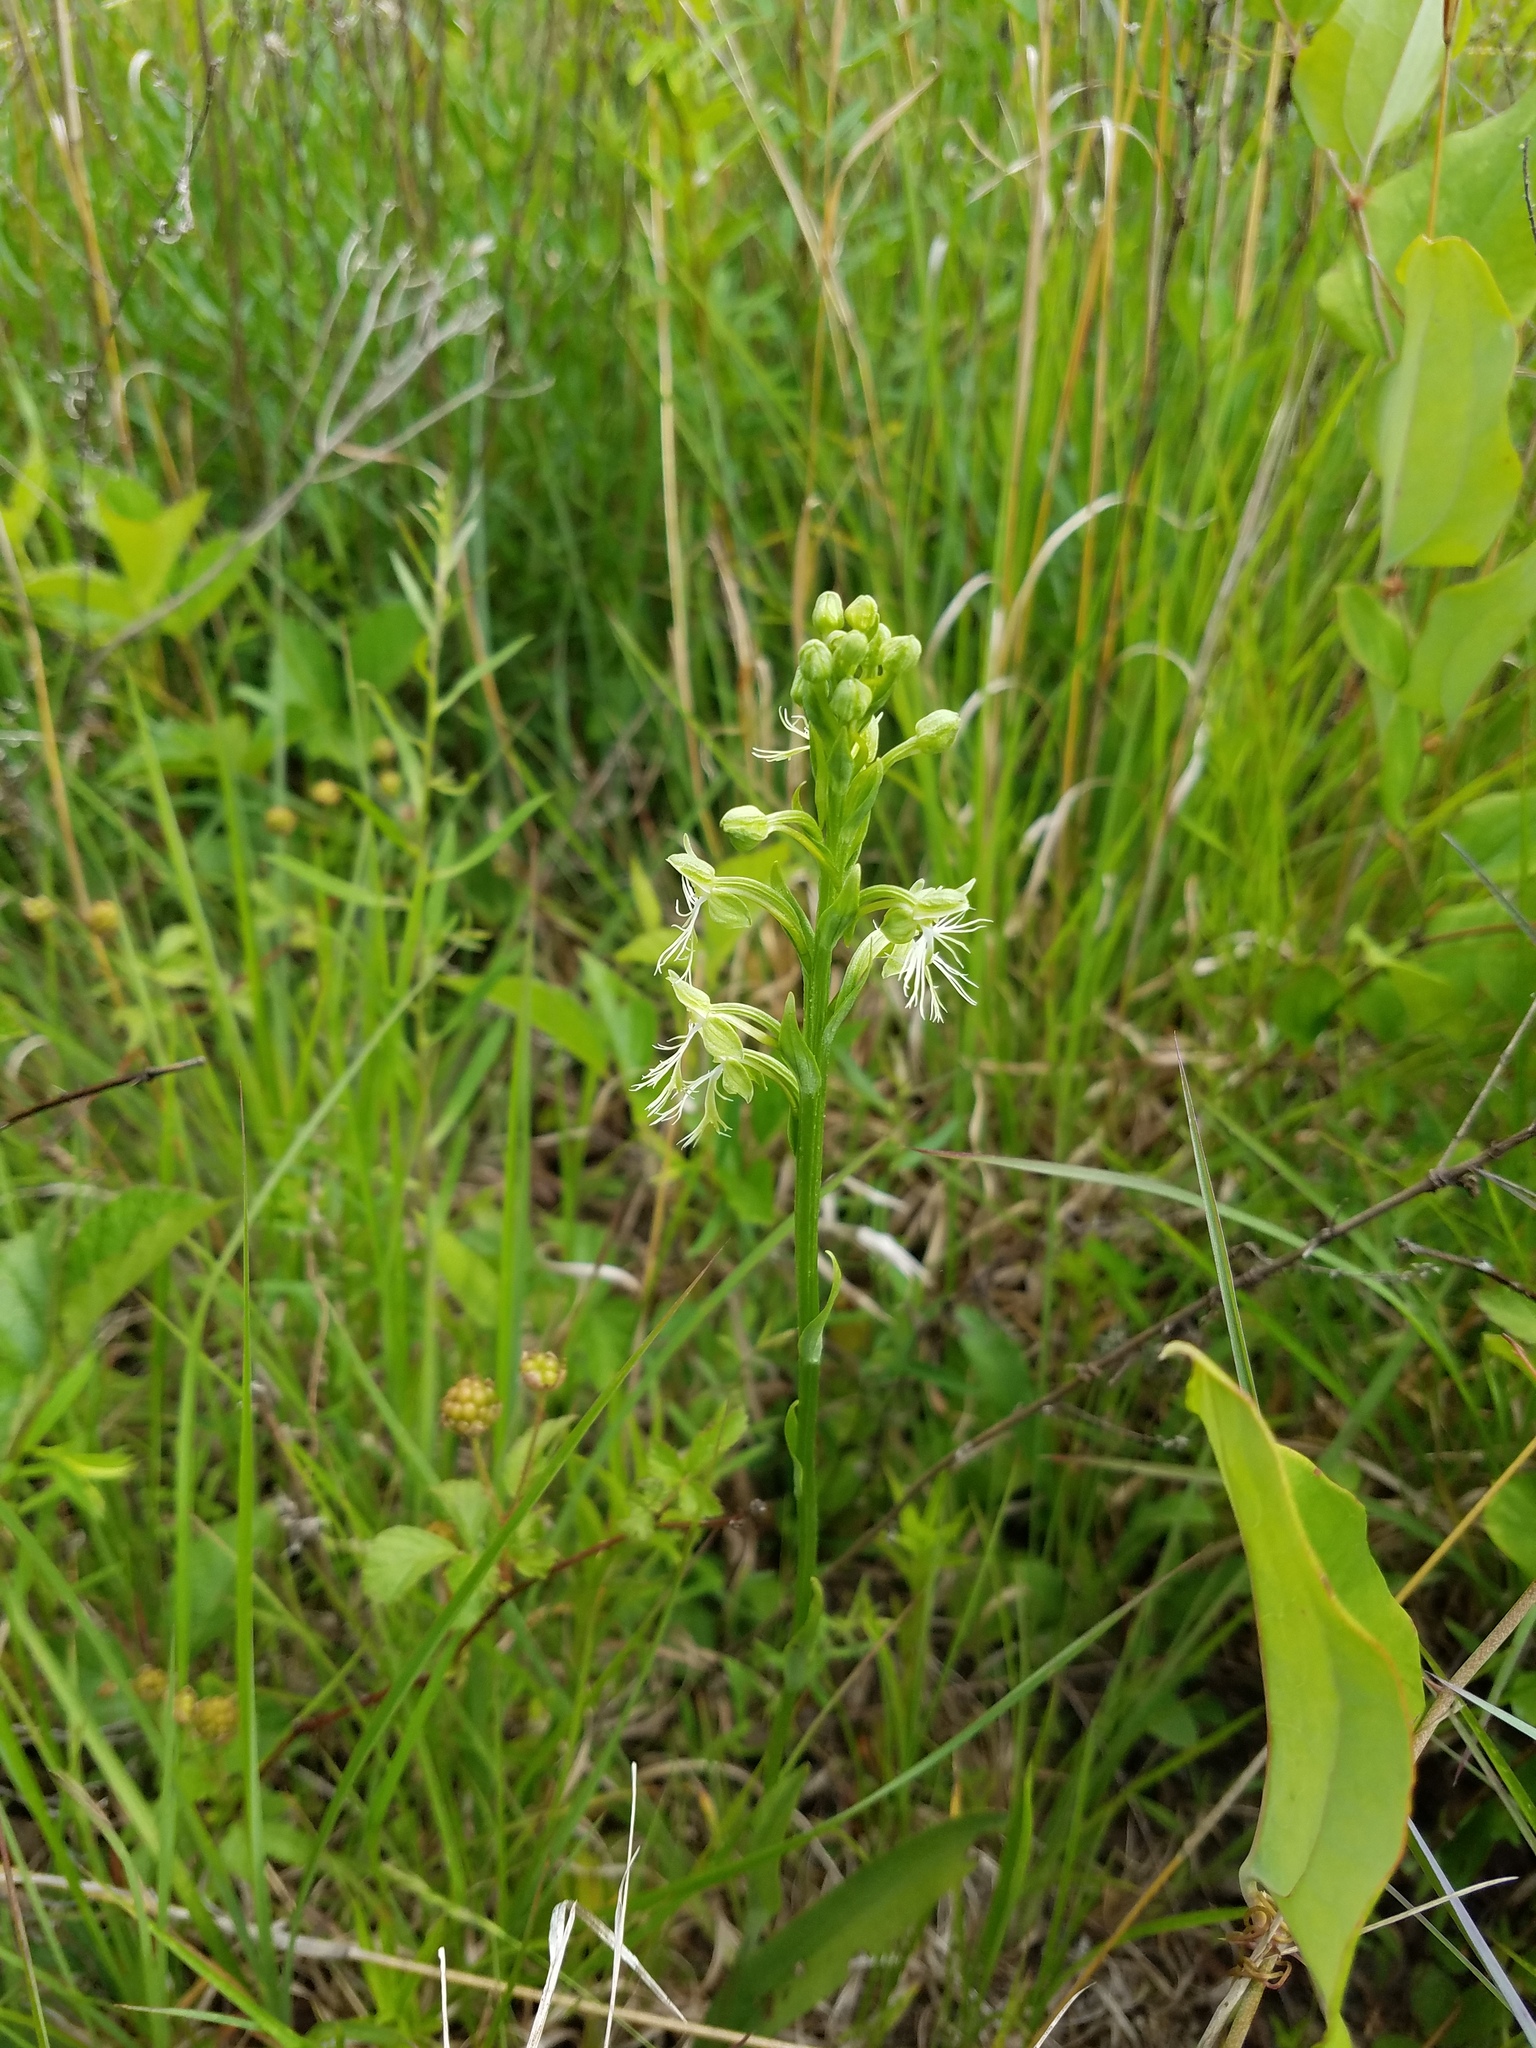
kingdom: Plantae
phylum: Tracheophyta
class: Liliopsida
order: Asparagales
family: Orchidaceae
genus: Platanthera
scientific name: Platanthera lacera
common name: Green fringed orchid
